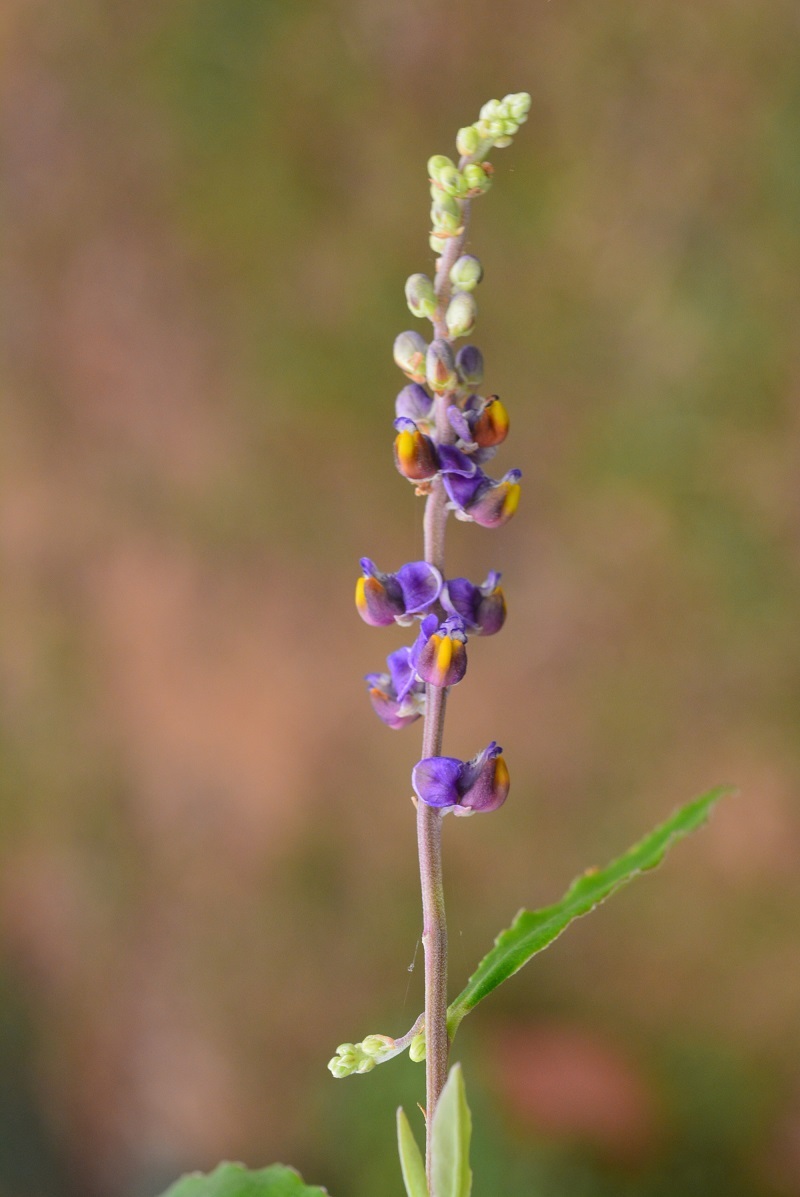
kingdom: Plantae
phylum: Tracheophyta
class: Magnoliopsida
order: Fabales
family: Polygalaceae
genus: Monnina
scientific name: Monnina xalapensis
